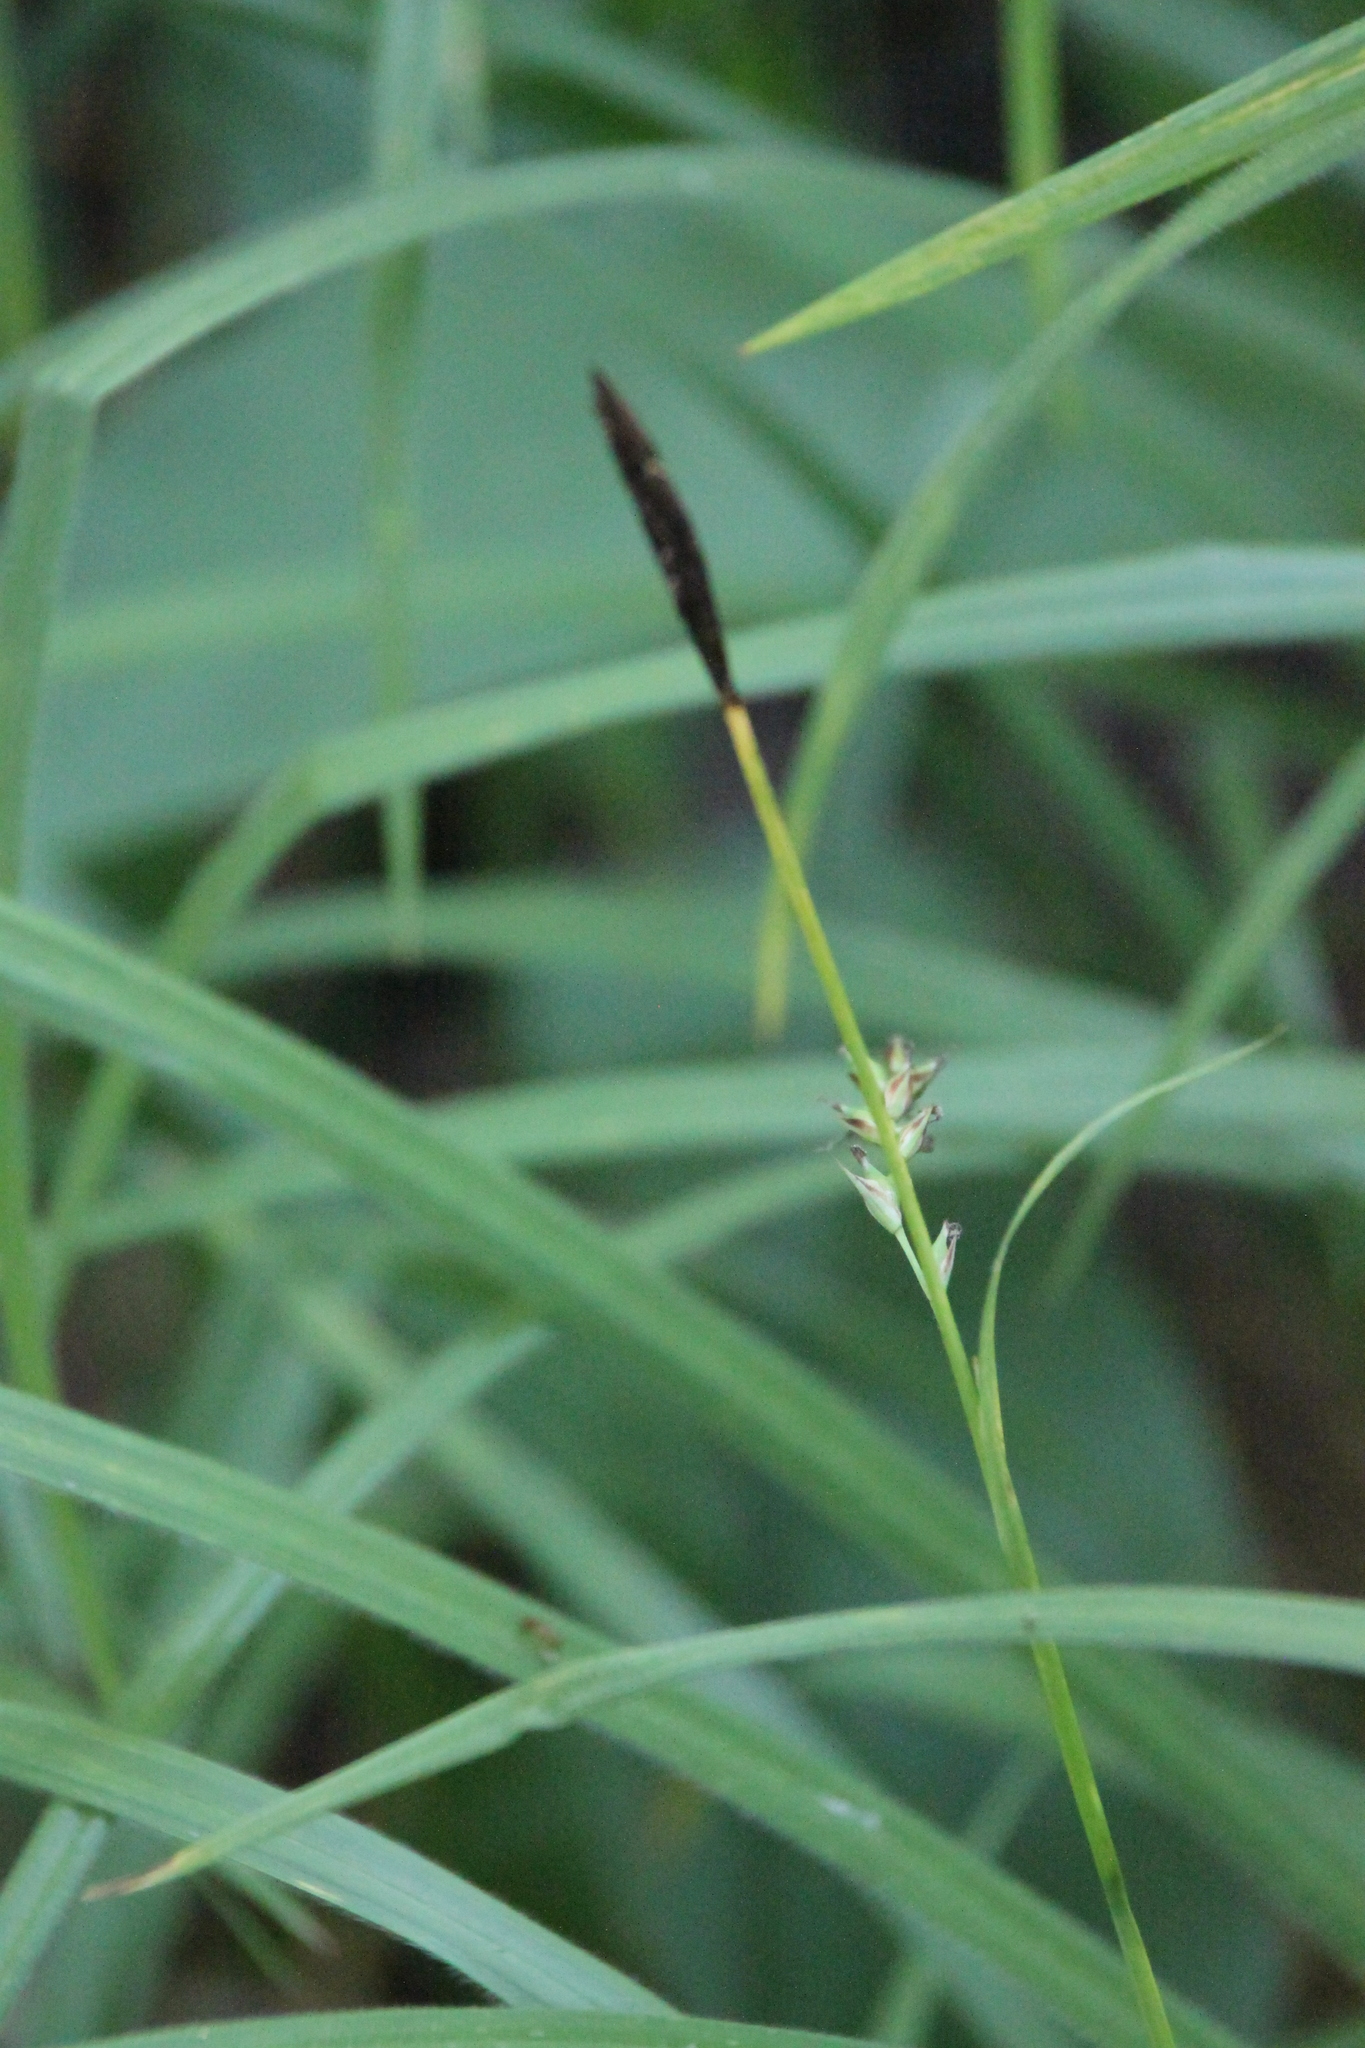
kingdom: Plantae
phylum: Tracheophyta
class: Liliopsida
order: Poales
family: Cyperaceae
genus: Carex
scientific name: Carex pilosa
